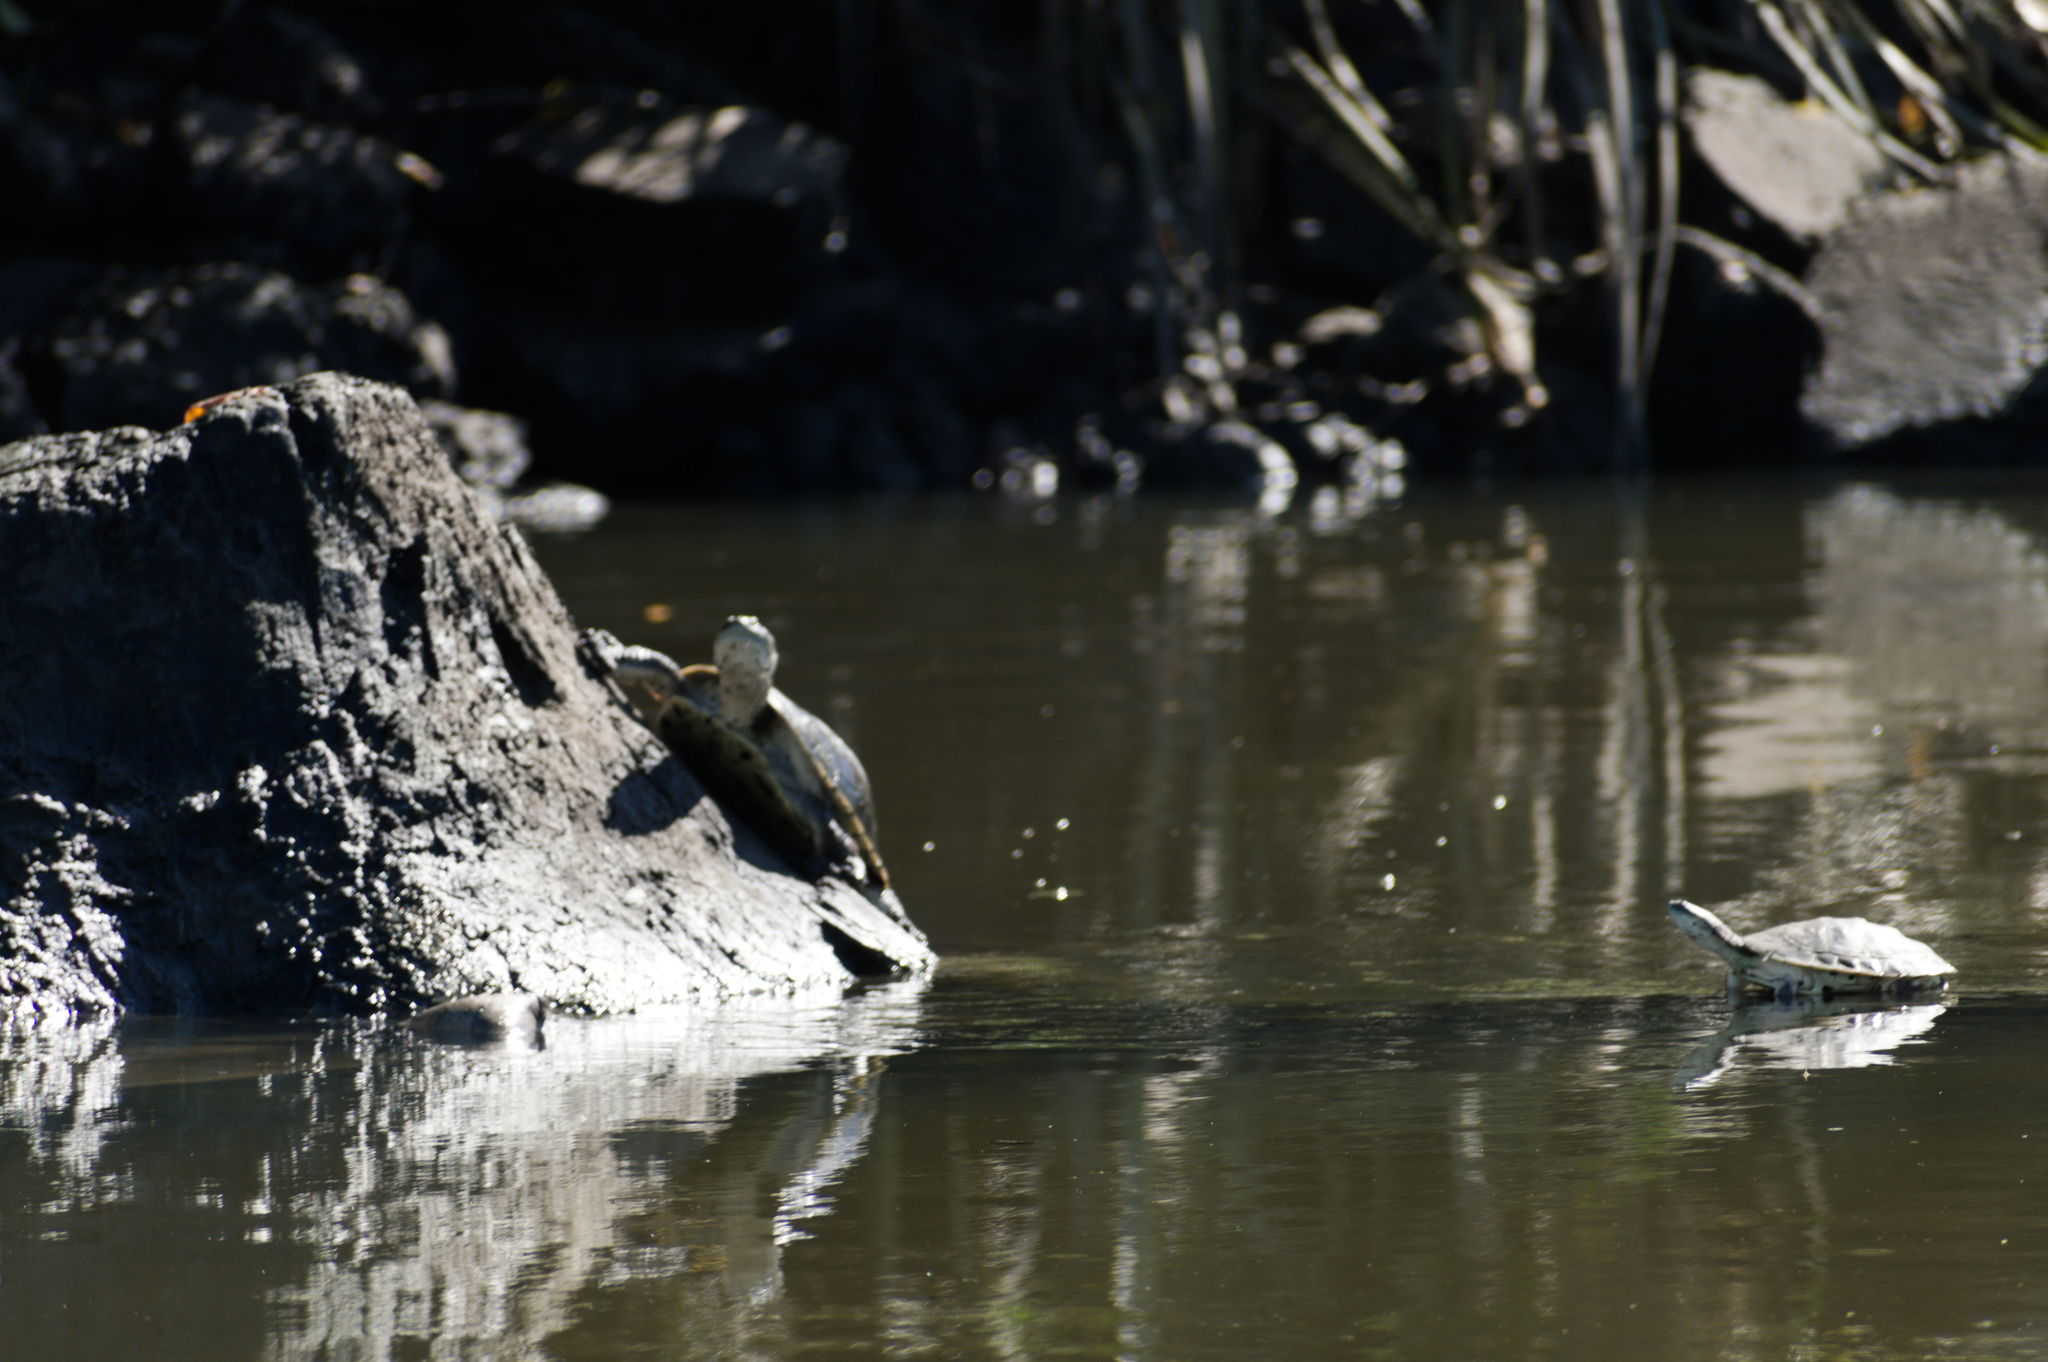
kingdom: Animalia
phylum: Chordata
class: Testudines
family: Chelidae
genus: Phrynops
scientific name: Phrynops hilarii
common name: Side-necked turtle of saint hillaire
